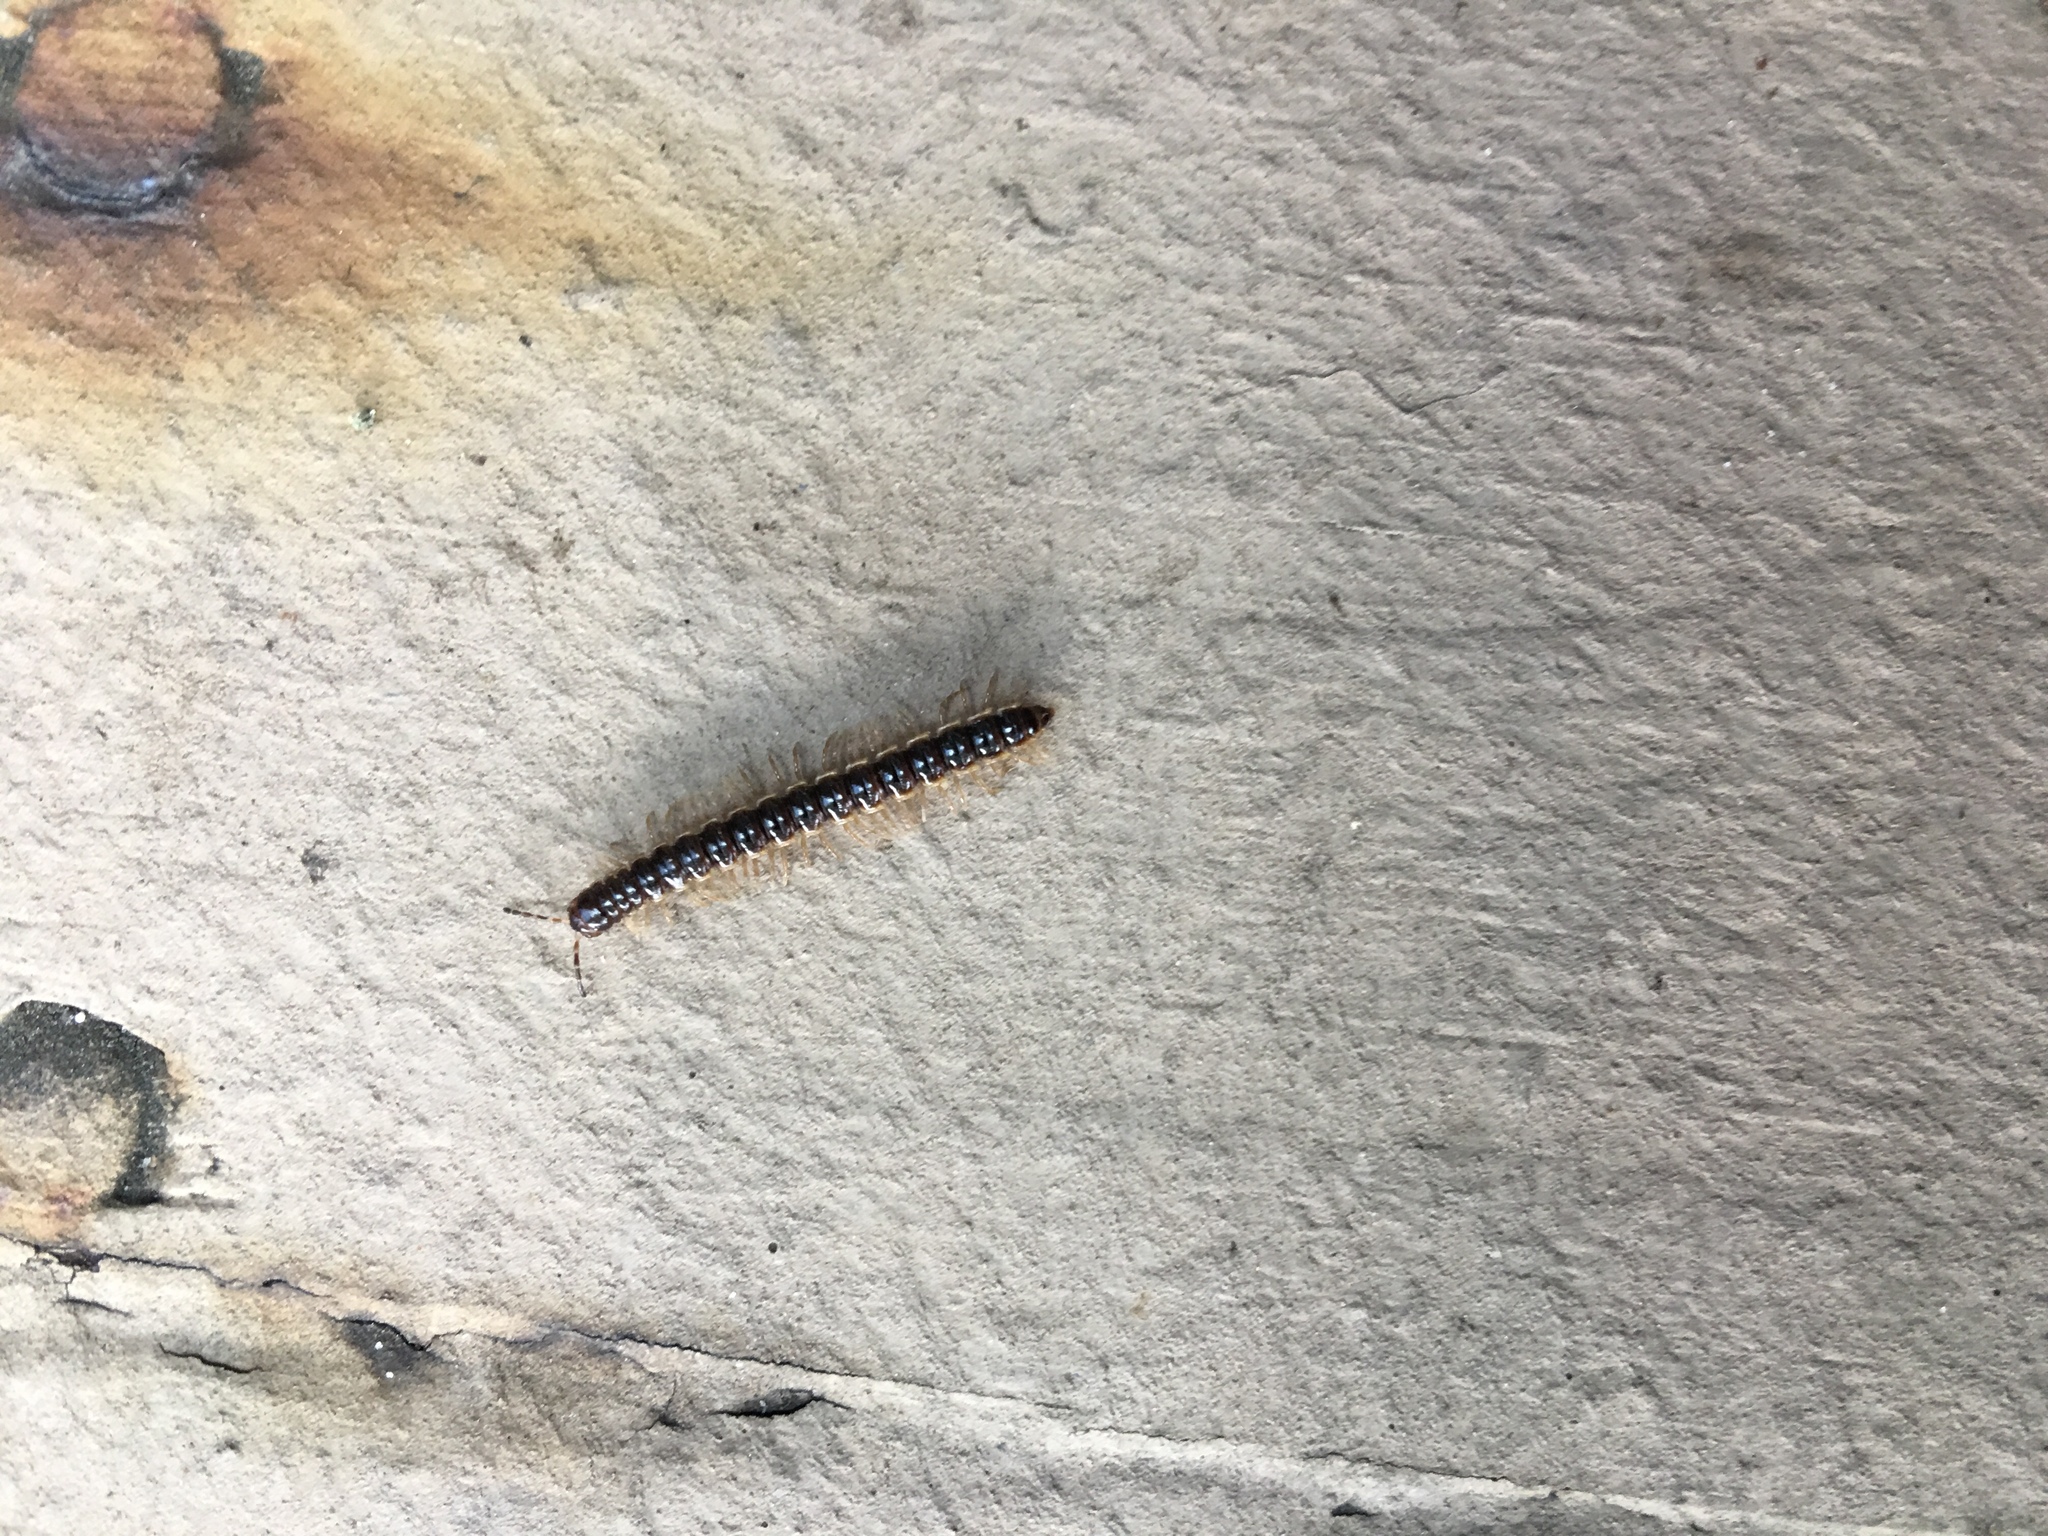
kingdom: Animalia
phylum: Arthropoda
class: Diplopoda
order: Polydesmida
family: Paradoxosomatidae
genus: Orthomorpha
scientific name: Orthomorpha coarctata
